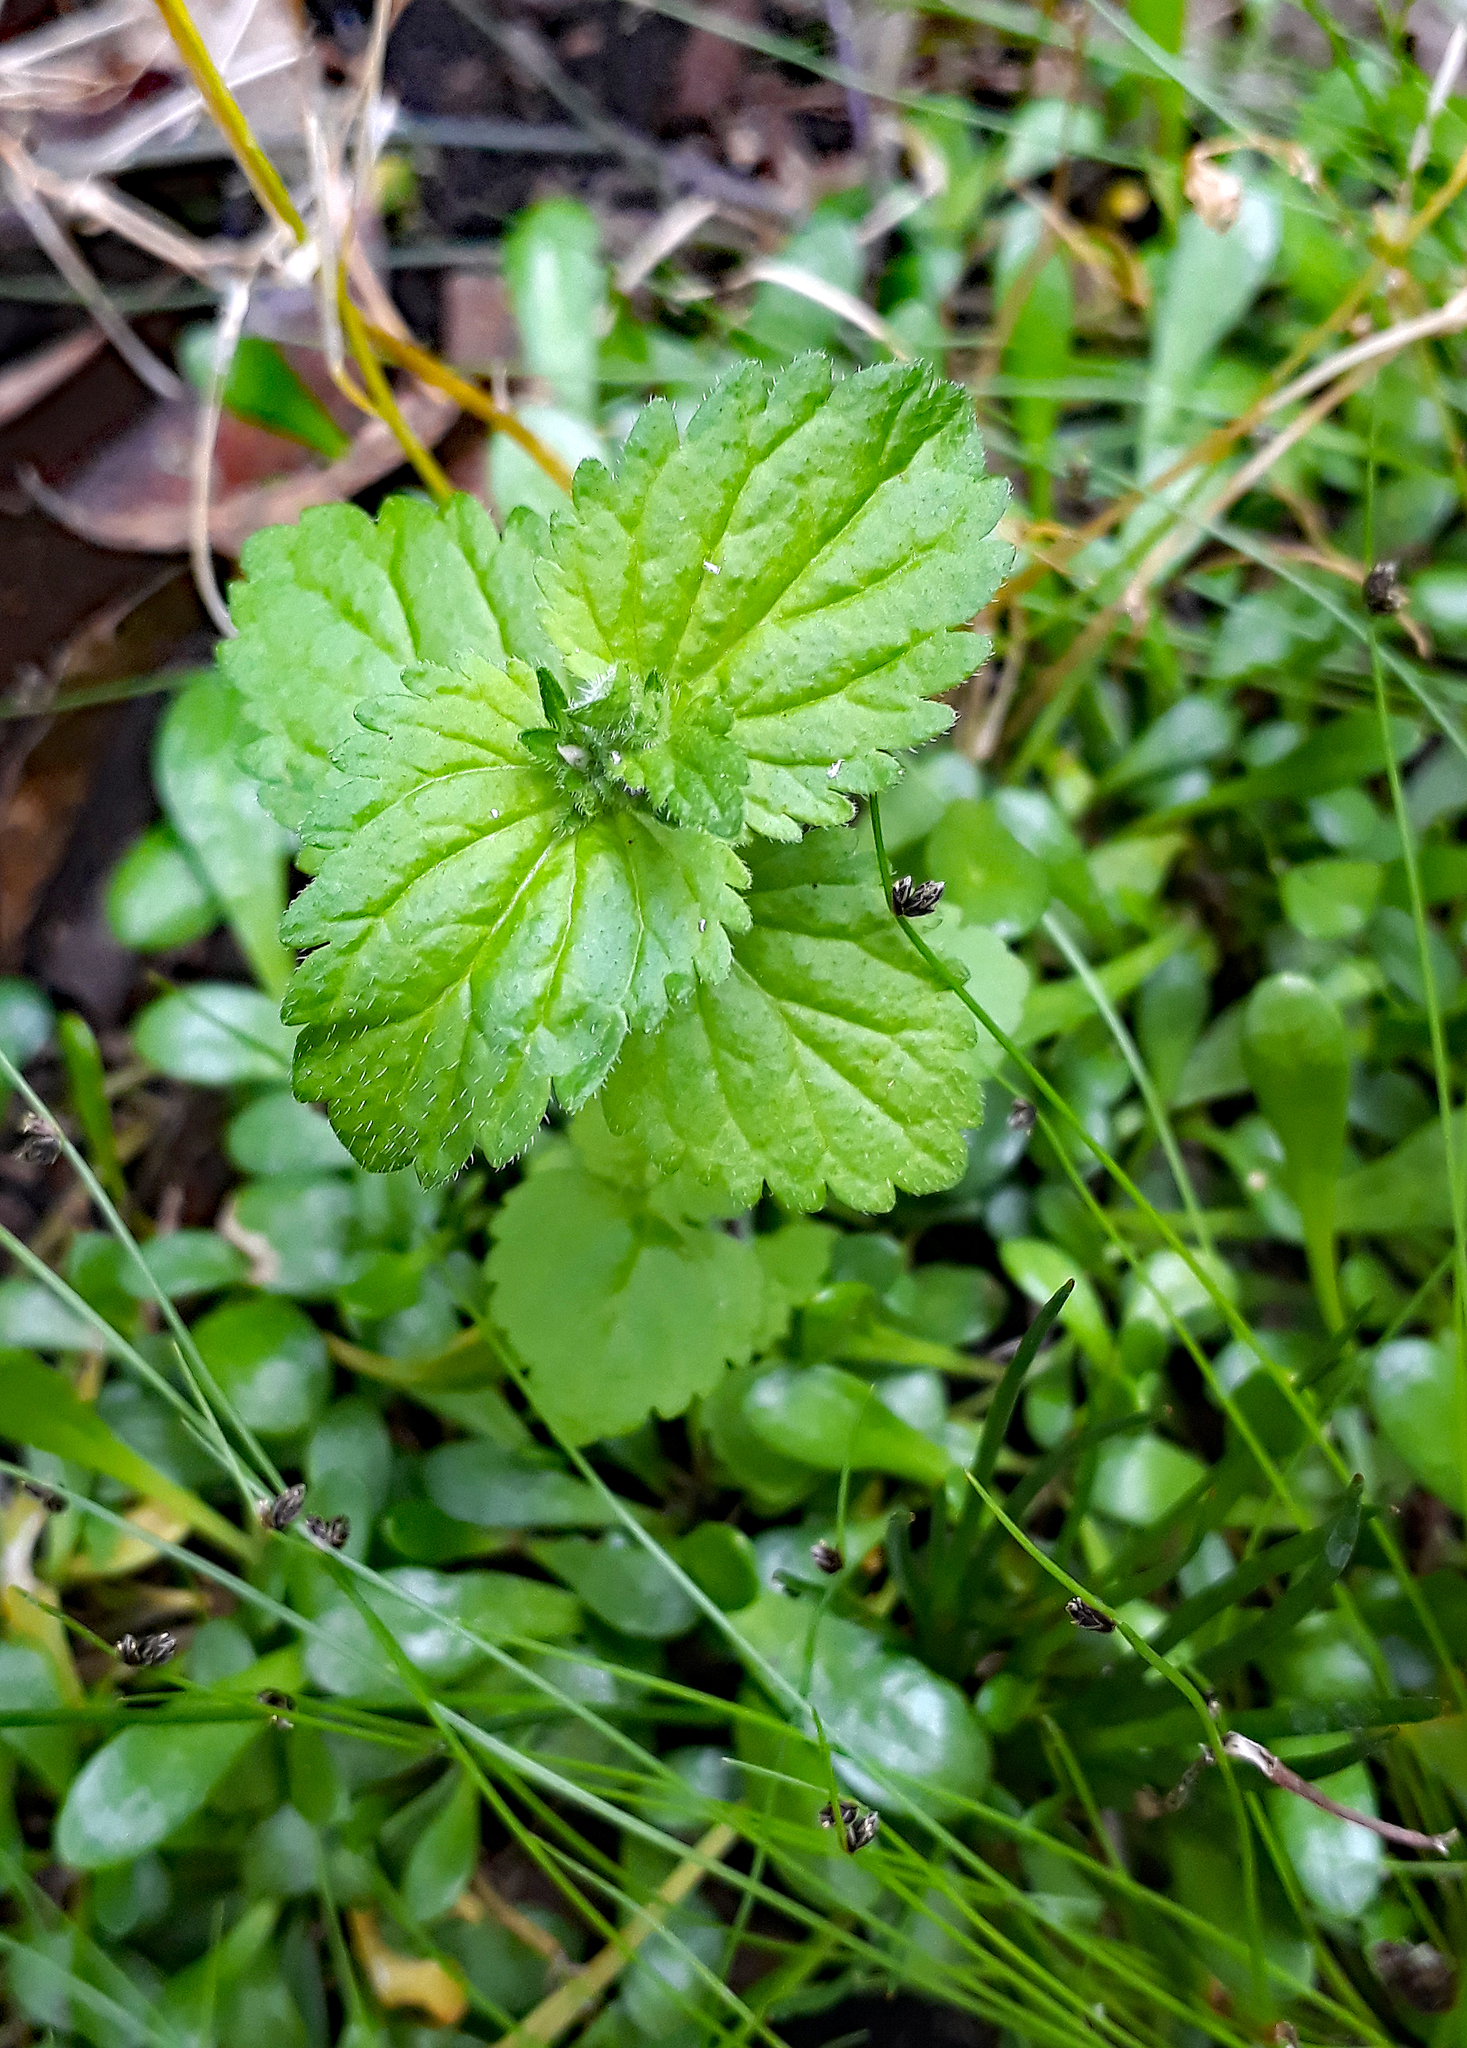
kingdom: Plantae
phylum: Tracheophyta
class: Magnoliopsida
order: Lamiales
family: Plantaginaceae
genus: Veronica
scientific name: Veronica javanica
